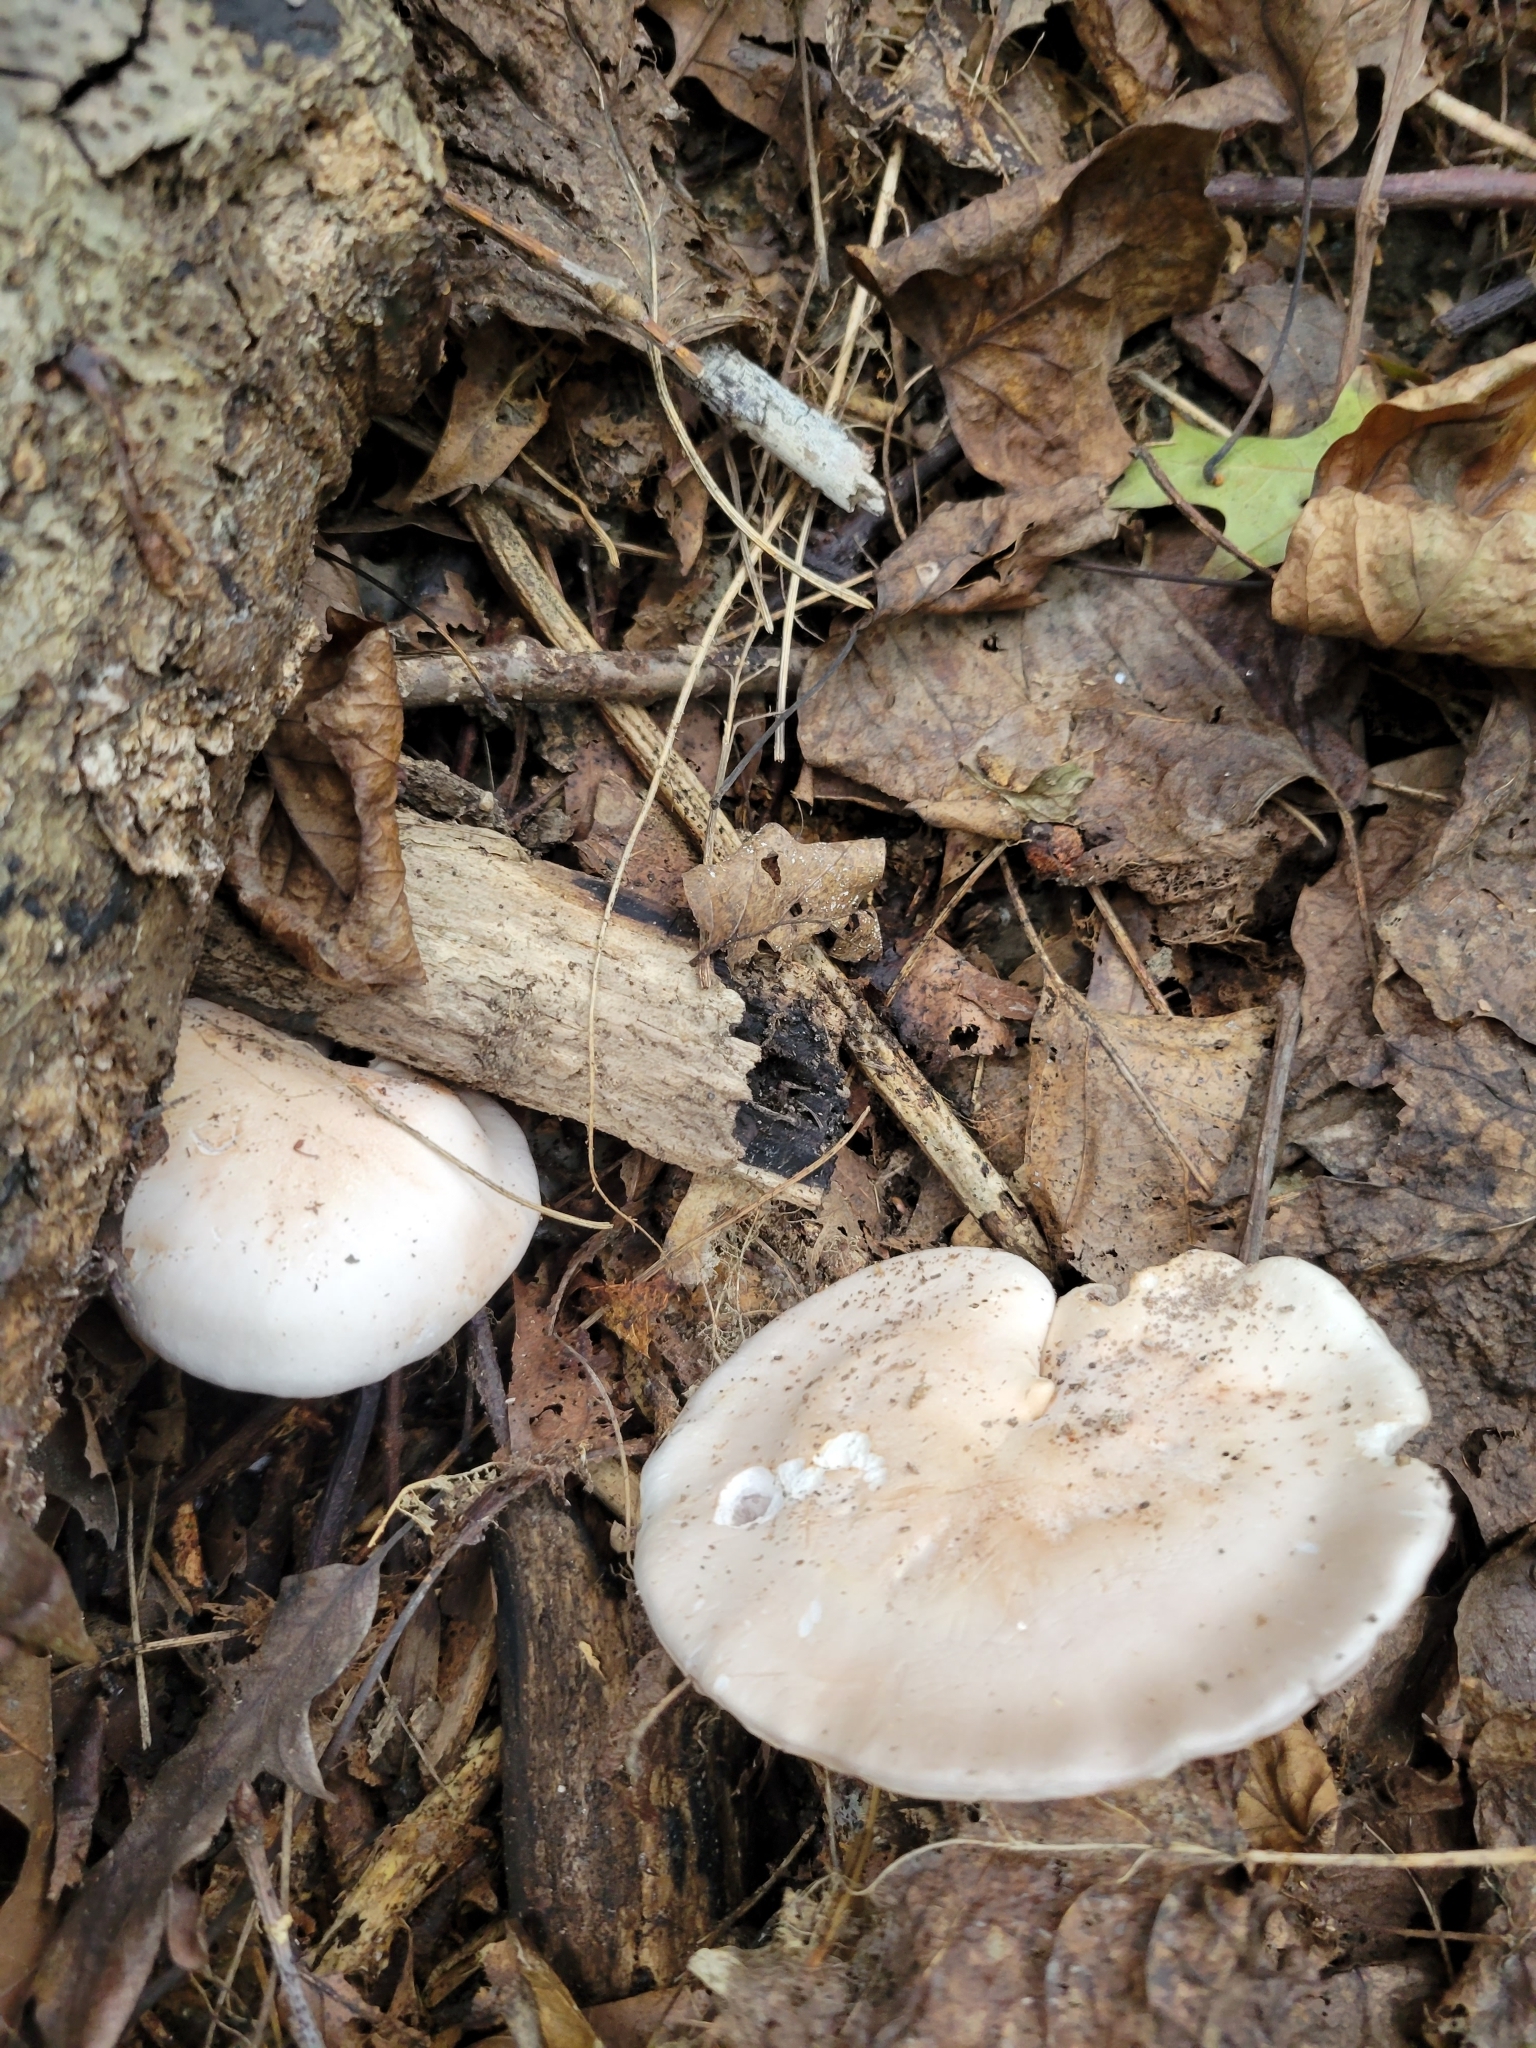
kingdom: Fungi
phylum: Basidiomycota
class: Agaricomycetes
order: Agaricales
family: Tricholomataceae
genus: Collybia
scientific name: Collybia
